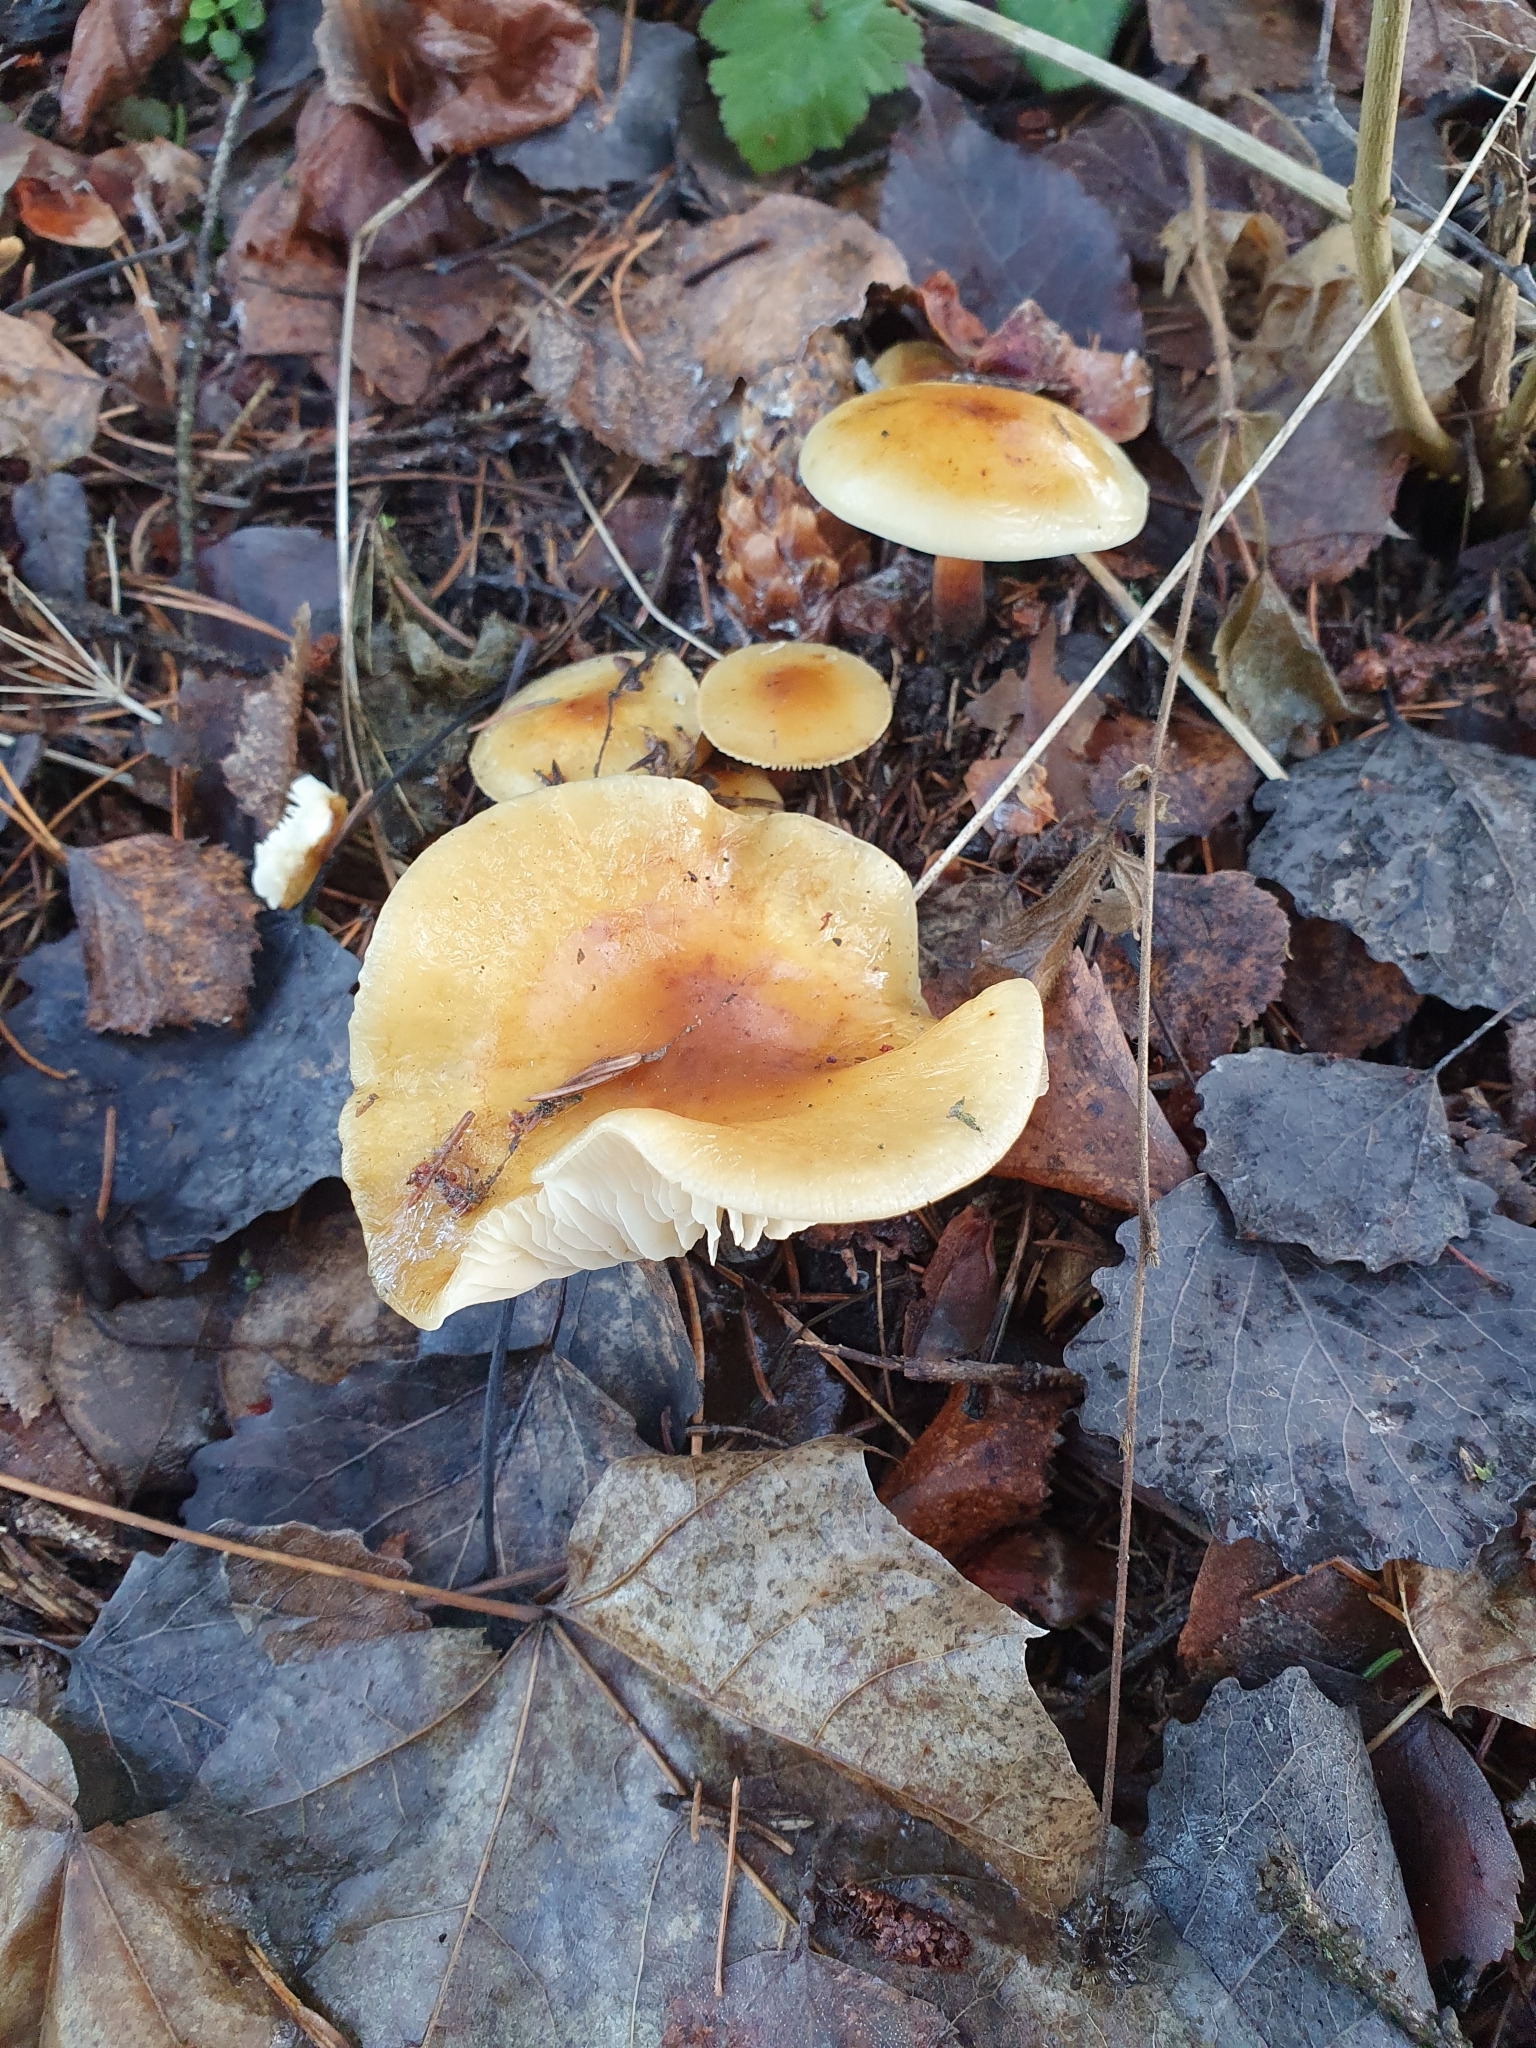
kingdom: Fungi
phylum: Basidiomycota
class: Agaricomycetes
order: Agaricales
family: Physalacriaceae
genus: Flammulina
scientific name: Flammulina
